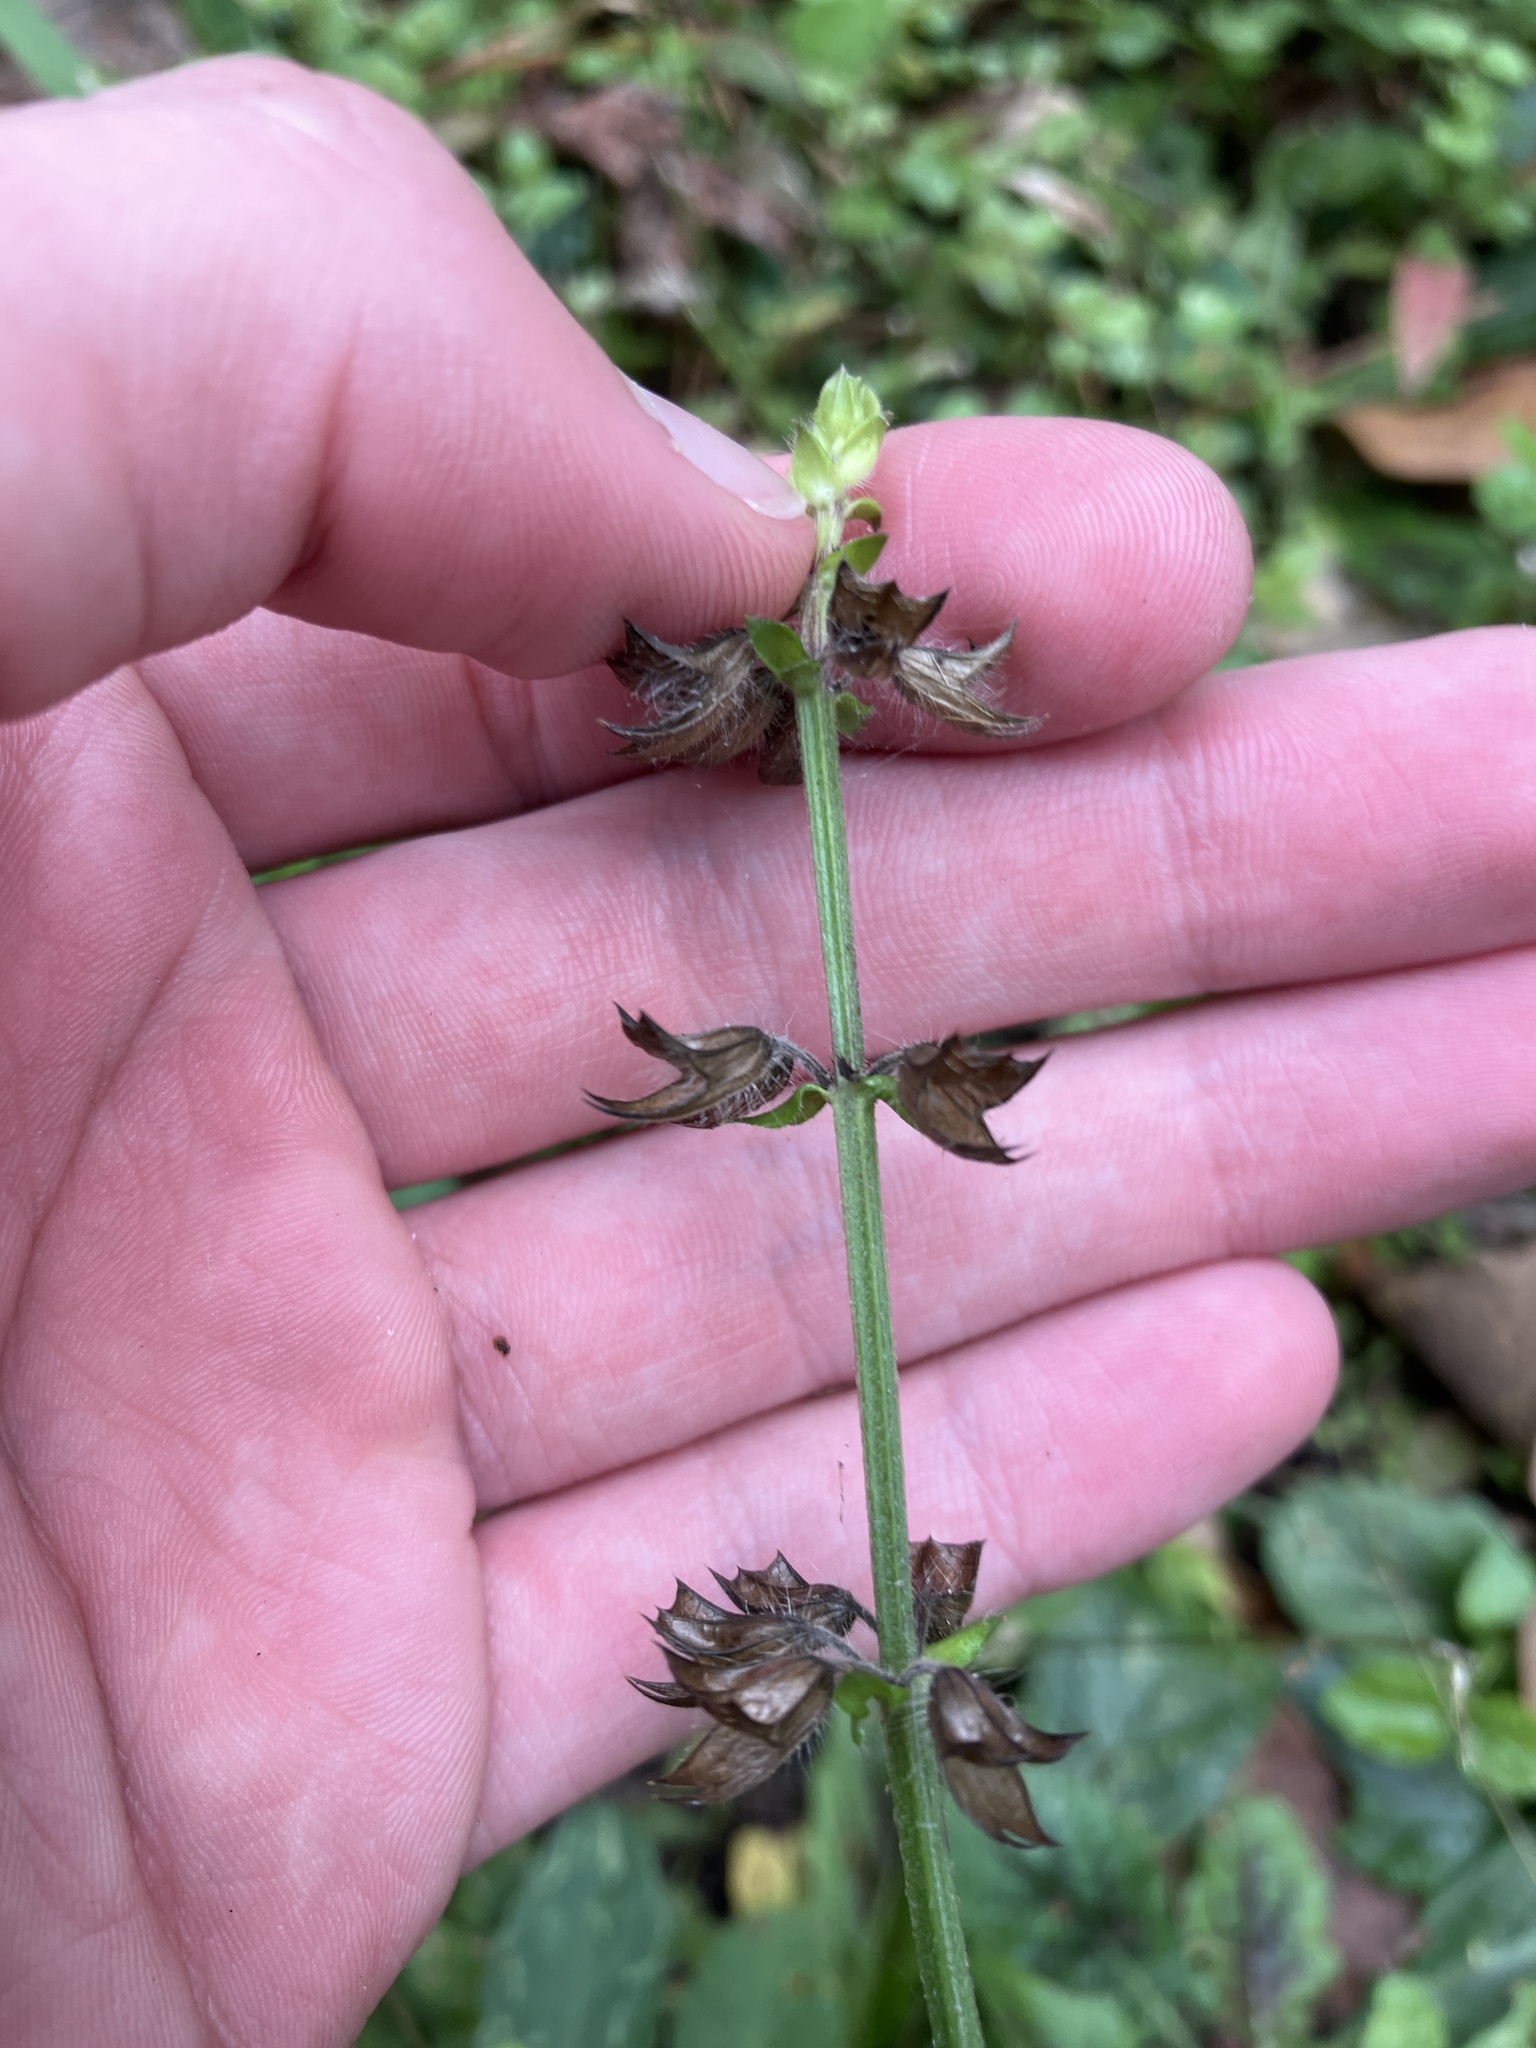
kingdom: Plantae
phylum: Tracheophyta
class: Magnoliopsida
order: Lamiales
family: Lamiaceae
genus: Salvia
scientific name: Salvia lyrata
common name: Cancerweed
